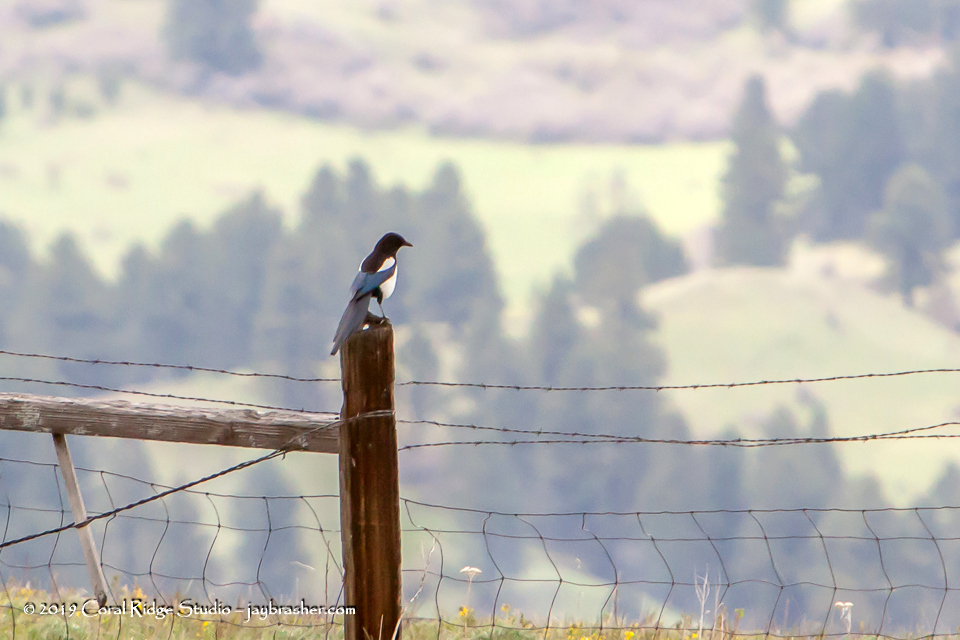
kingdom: Animalia
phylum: Chordata
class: Aves
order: Passeriformes
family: Corvidae
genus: Pica
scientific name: Pica hudsonia
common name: Black-billed magpie
